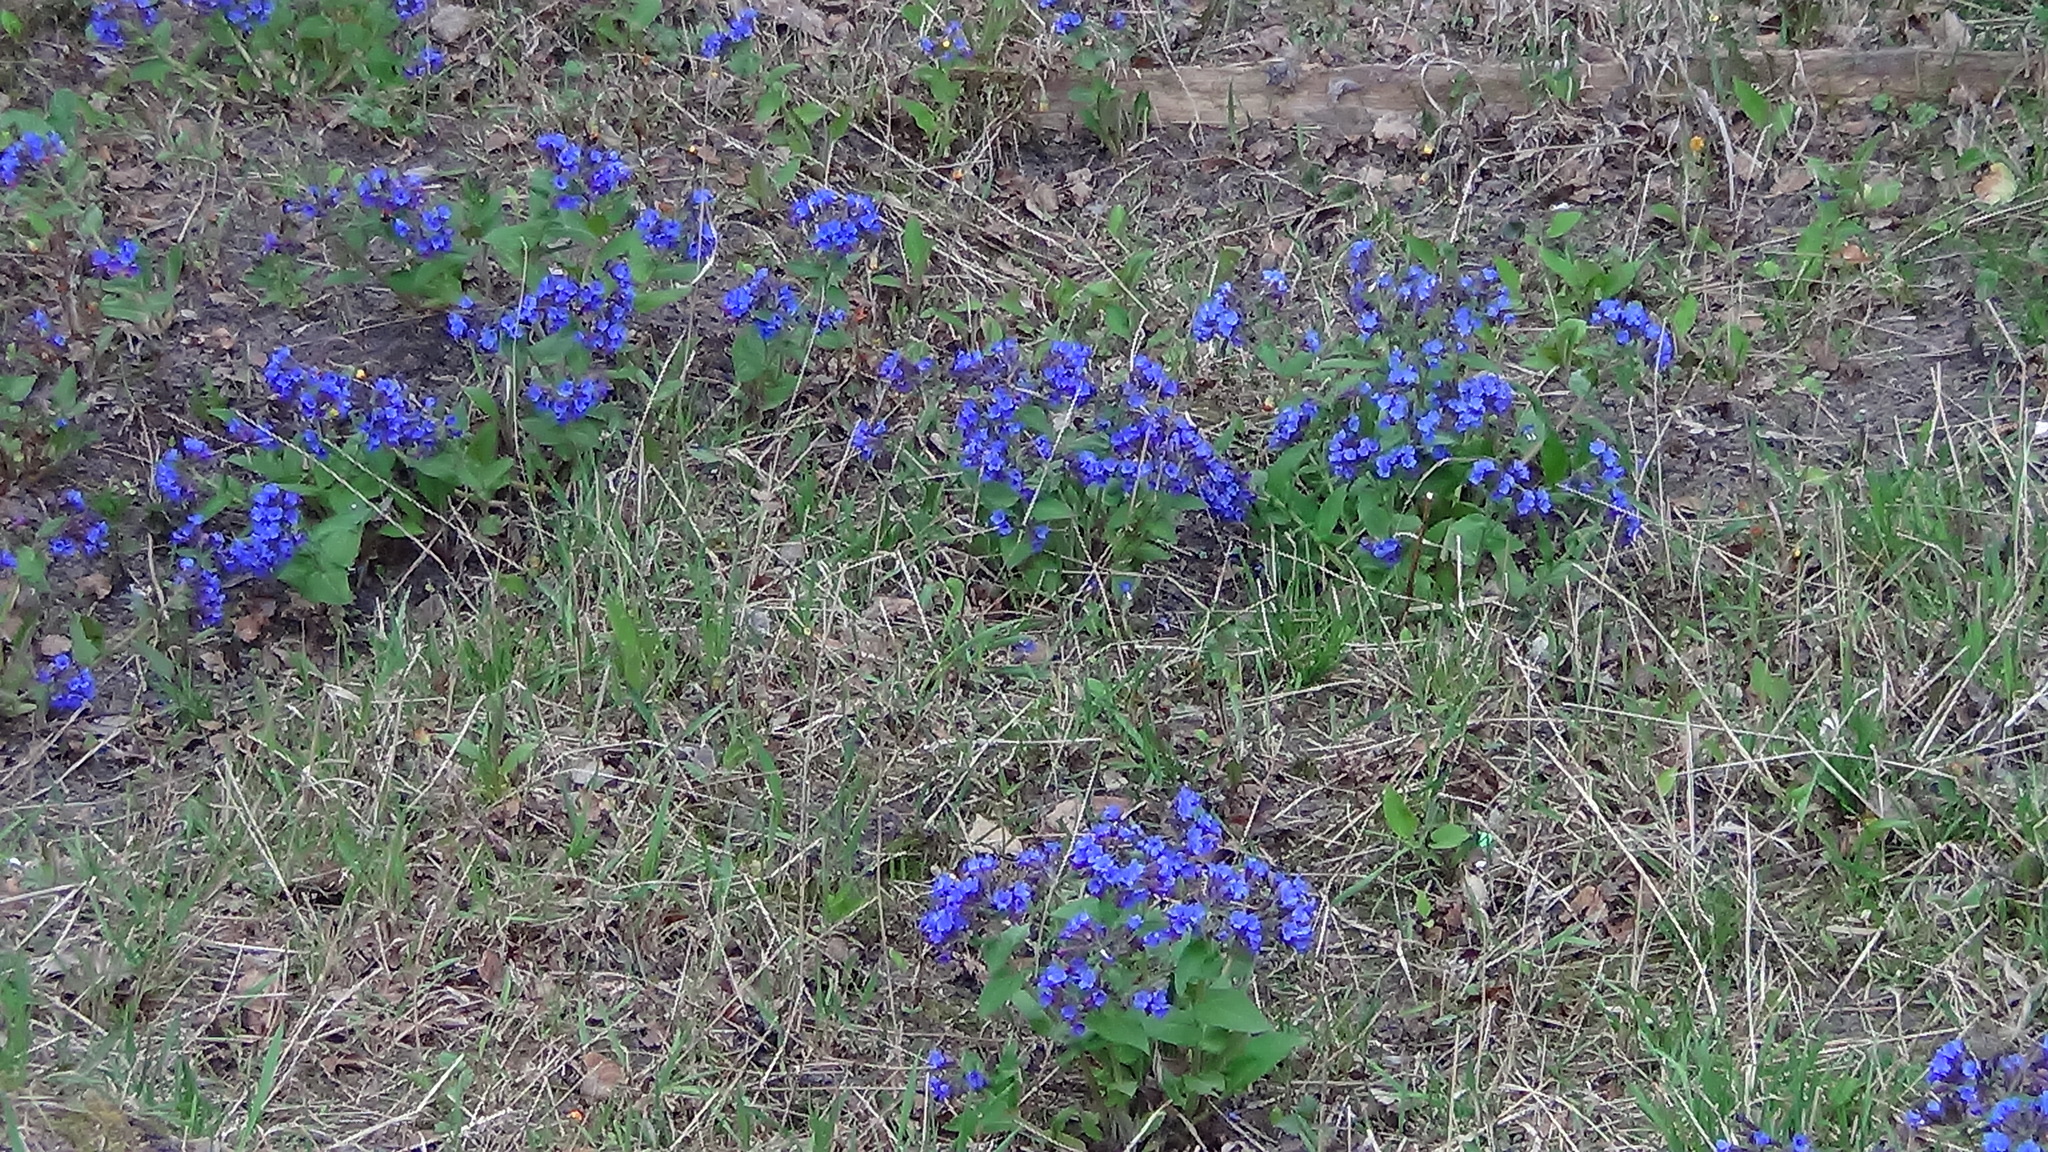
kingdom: Plantae
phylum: Tracheophyta
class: Magnoliopsida
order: Boraginales
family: Boraginaceae
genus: Pulmonaria
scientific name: Pulmonaria mollis
